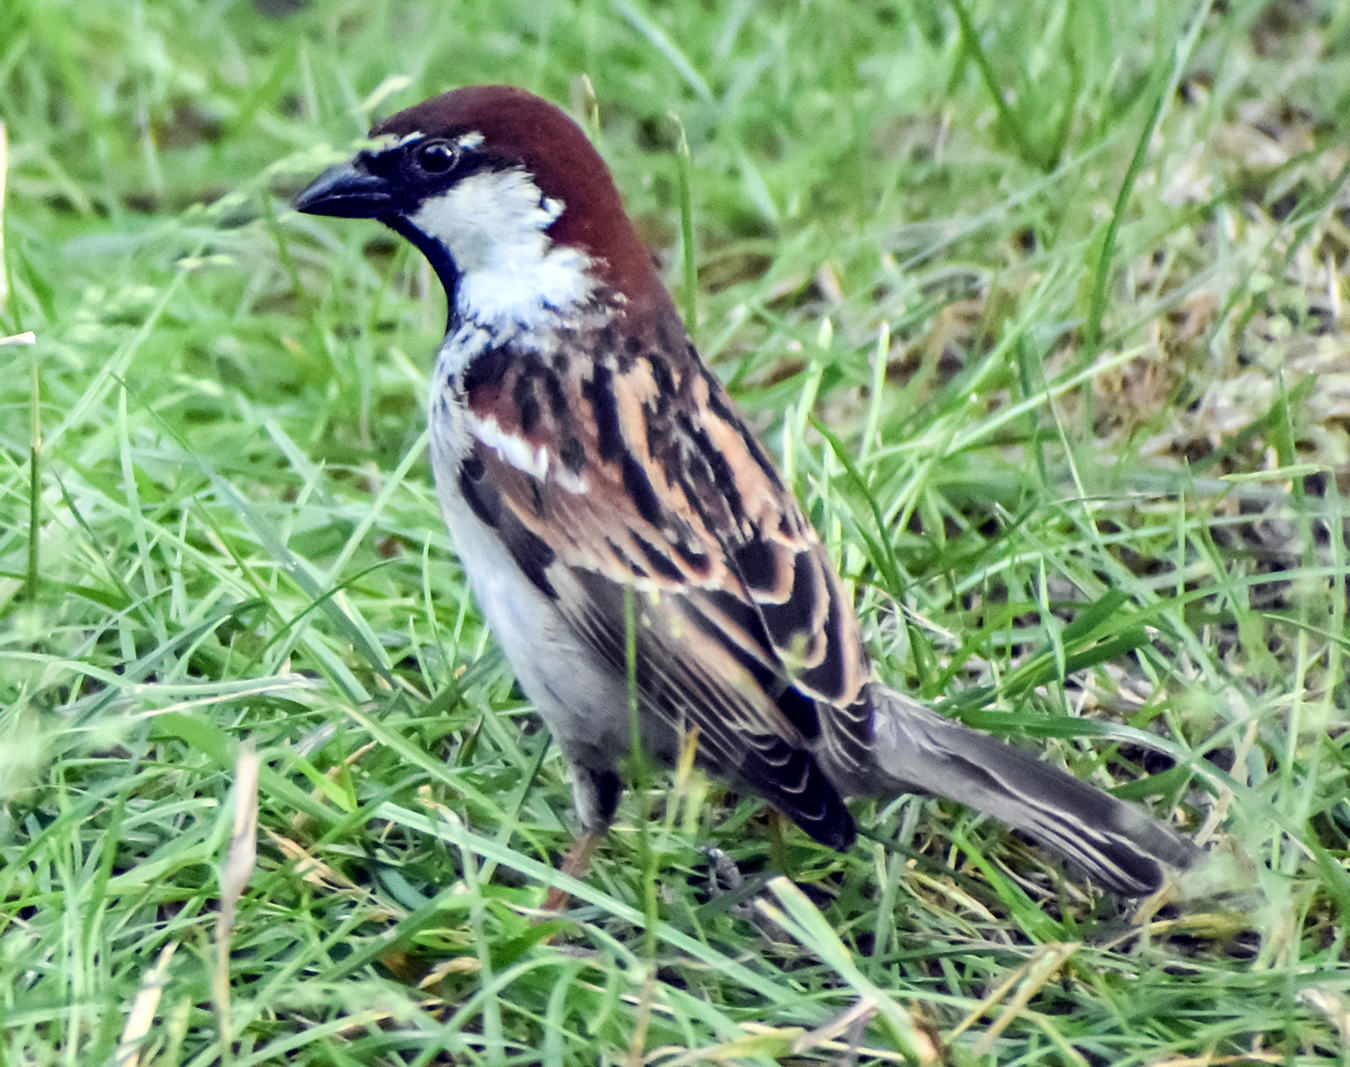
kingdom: Animalia
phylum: Chordata
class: Aves
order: Passeriformes
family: Passeridae
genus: Passer
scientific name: Passer italiae
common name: Italian sparrow
